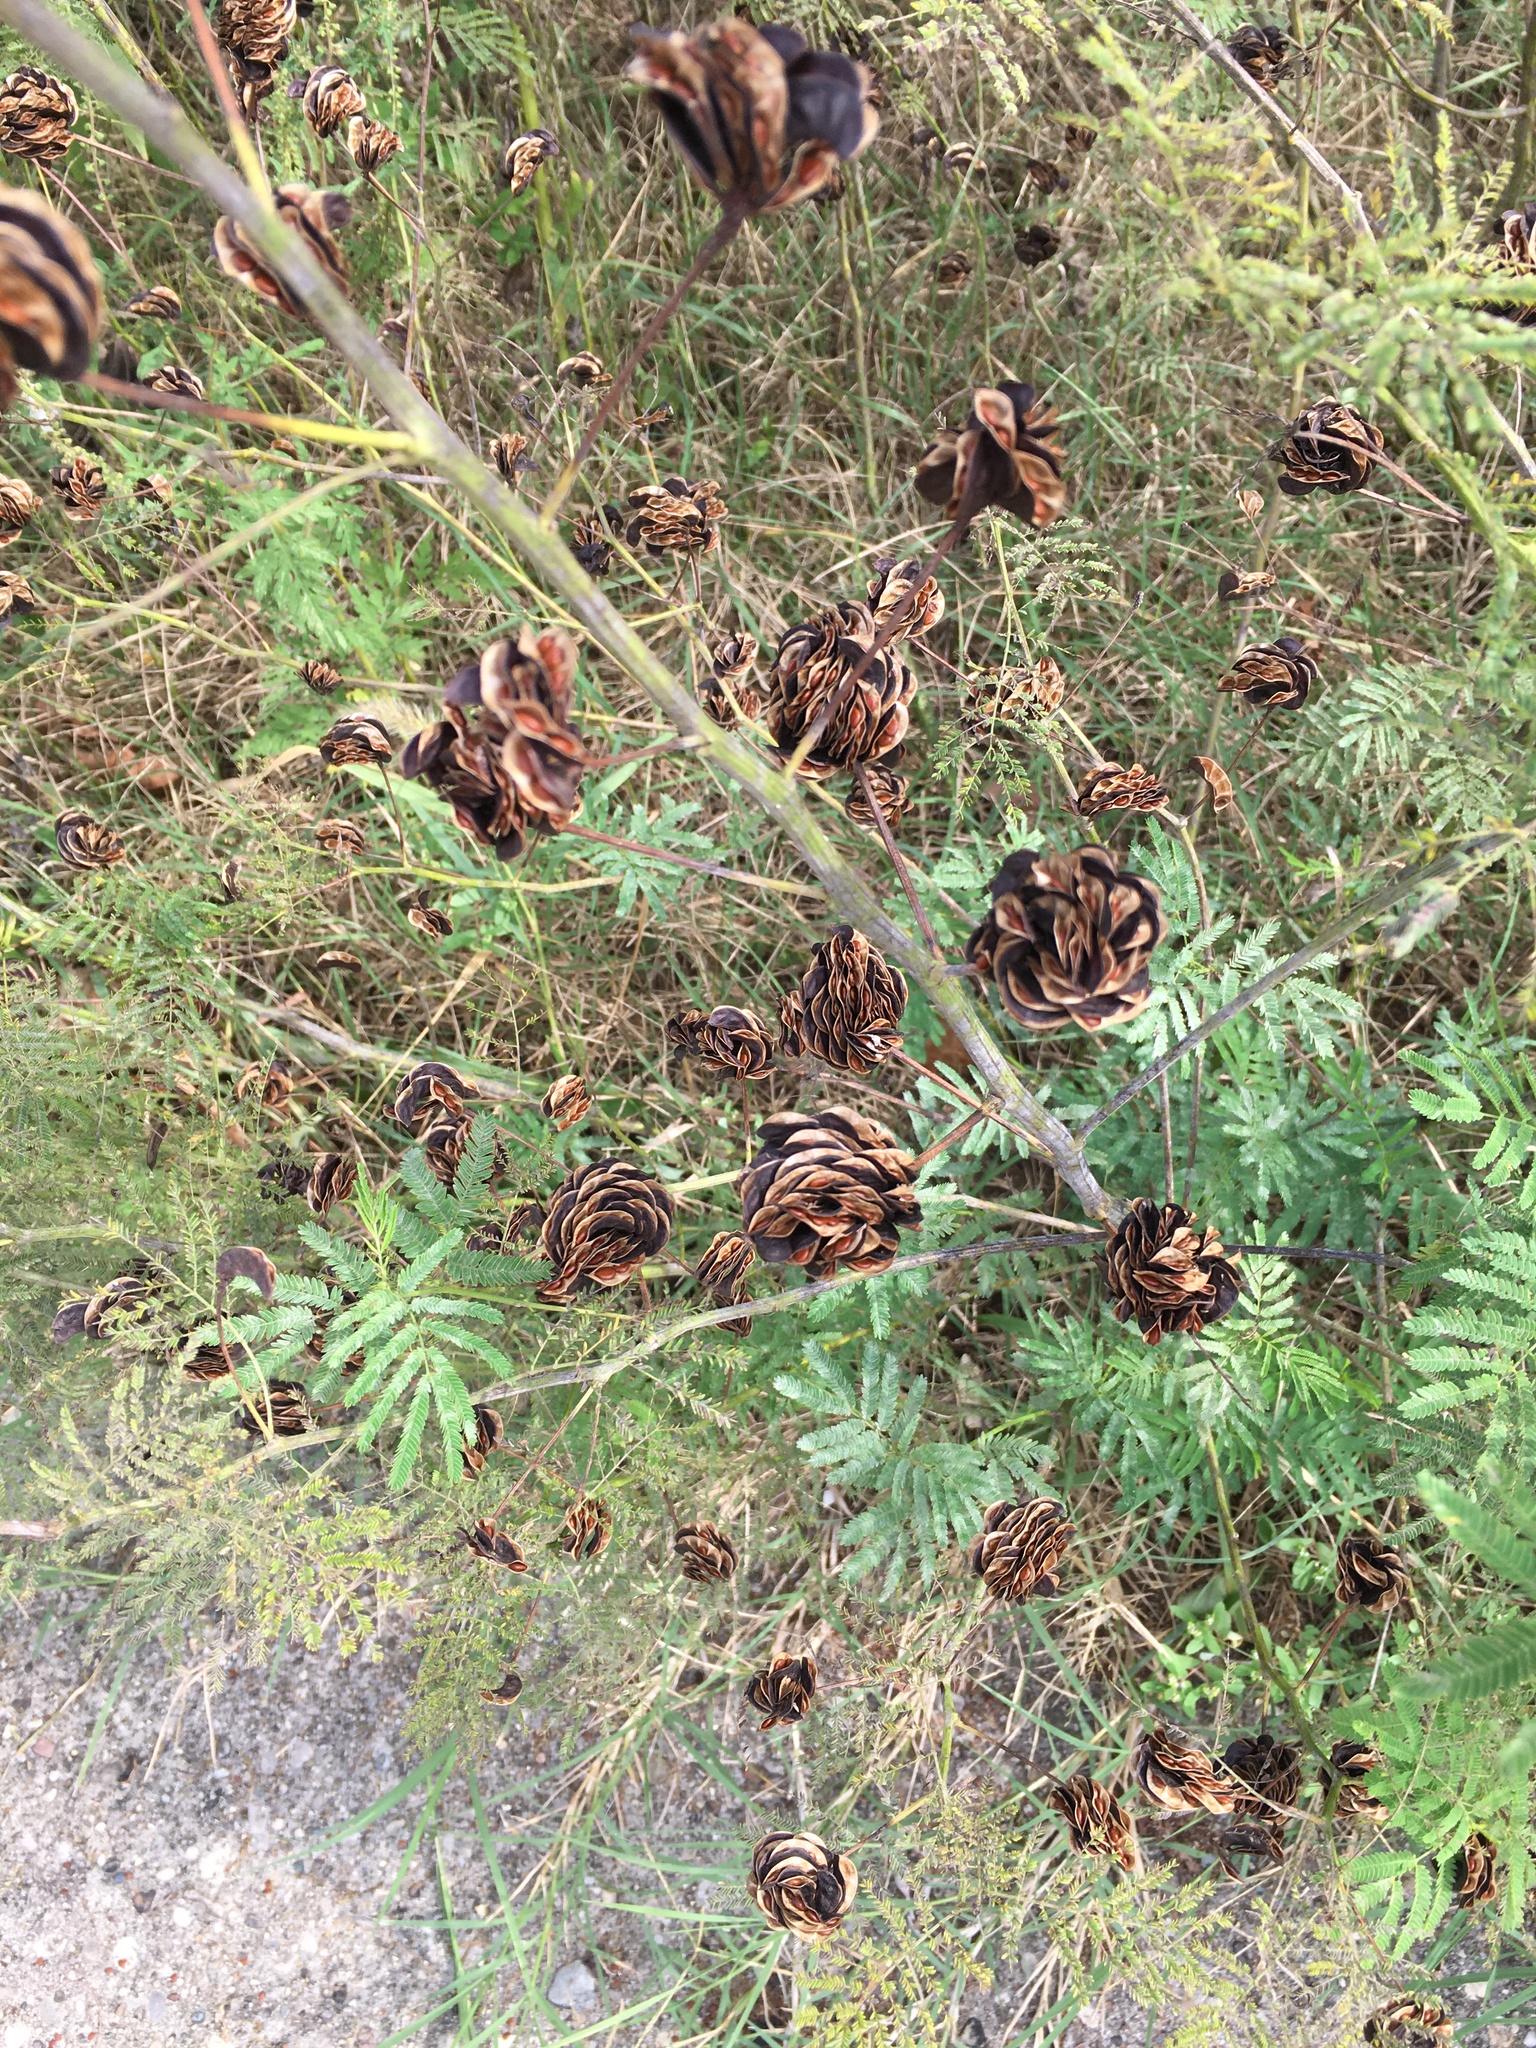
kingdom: Plantae
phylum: Tracheophyta
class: Magnoliopsida
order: Fabales
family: Fabaceae
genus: Desmanthus
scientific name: Desmanthus illinoensis
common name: Illinois bundle-flower
